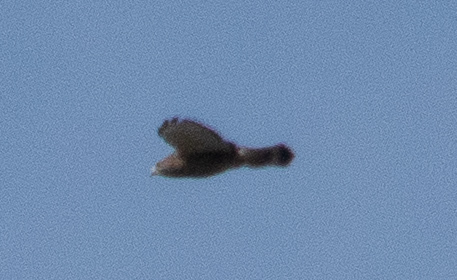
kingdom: Animalia
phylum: Chordata
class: Aves
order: Accipitriformes
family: Accipitridae
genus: Buteo
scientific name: Buteo platypterus
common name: Broad-winged hawk
